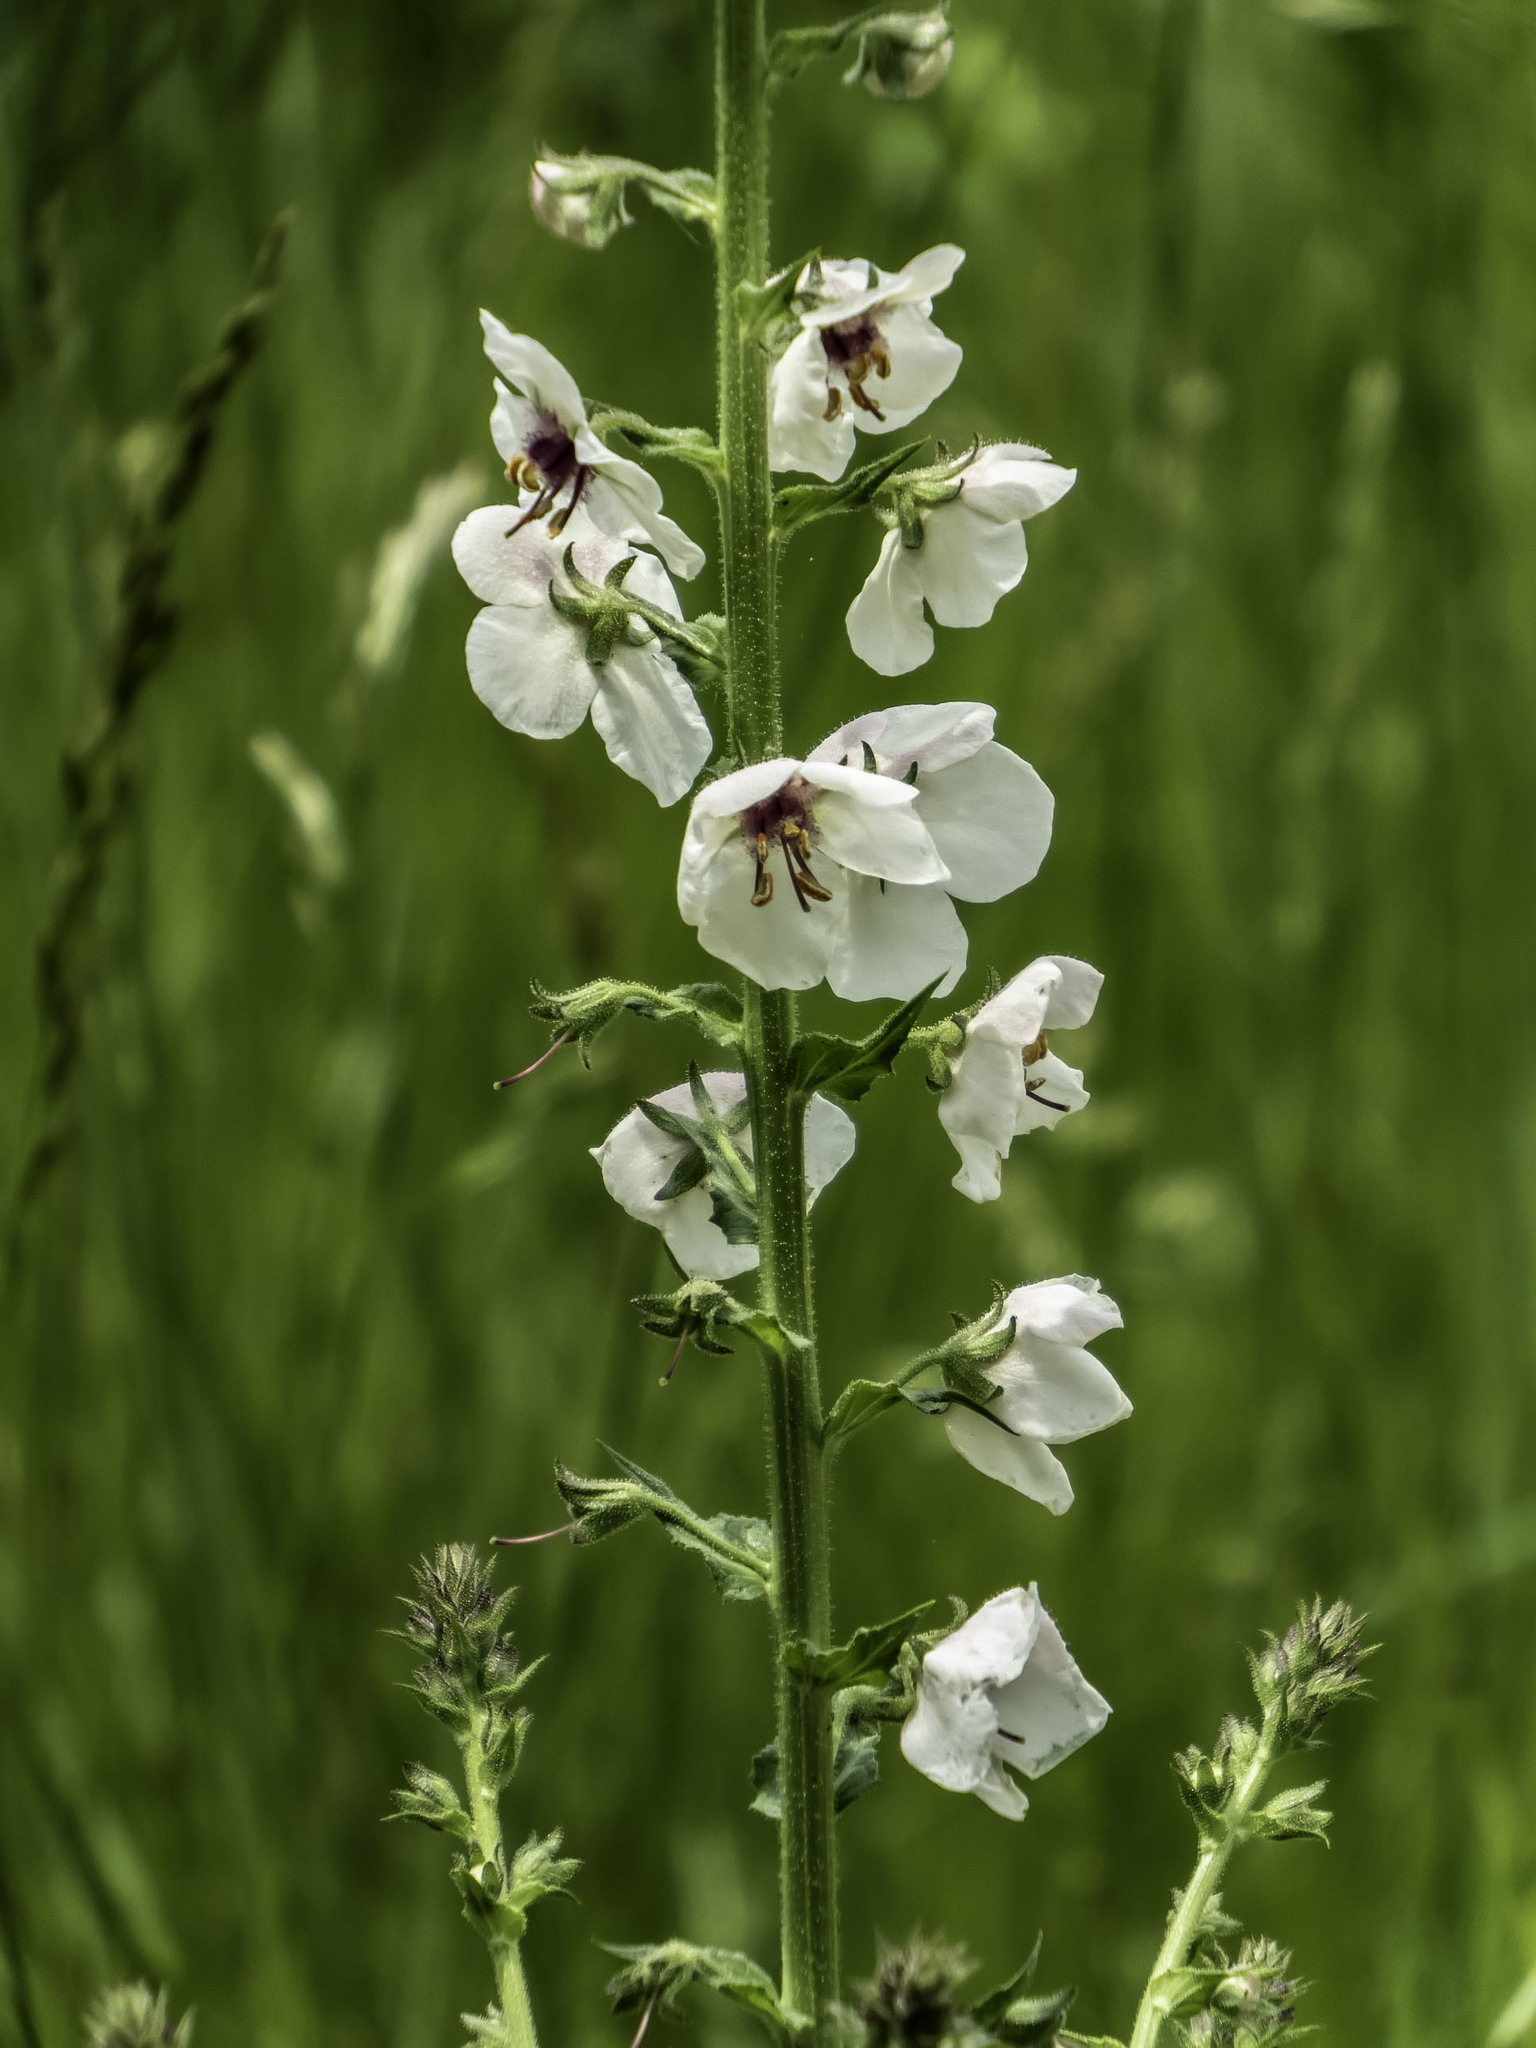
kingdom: Plantae
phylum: Tracheophyta
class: Magnoliopsida
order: Lamiales
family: Scrophulariaceae
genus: Verbascum
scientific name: Verbascum blattaria
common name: Moth mullein
